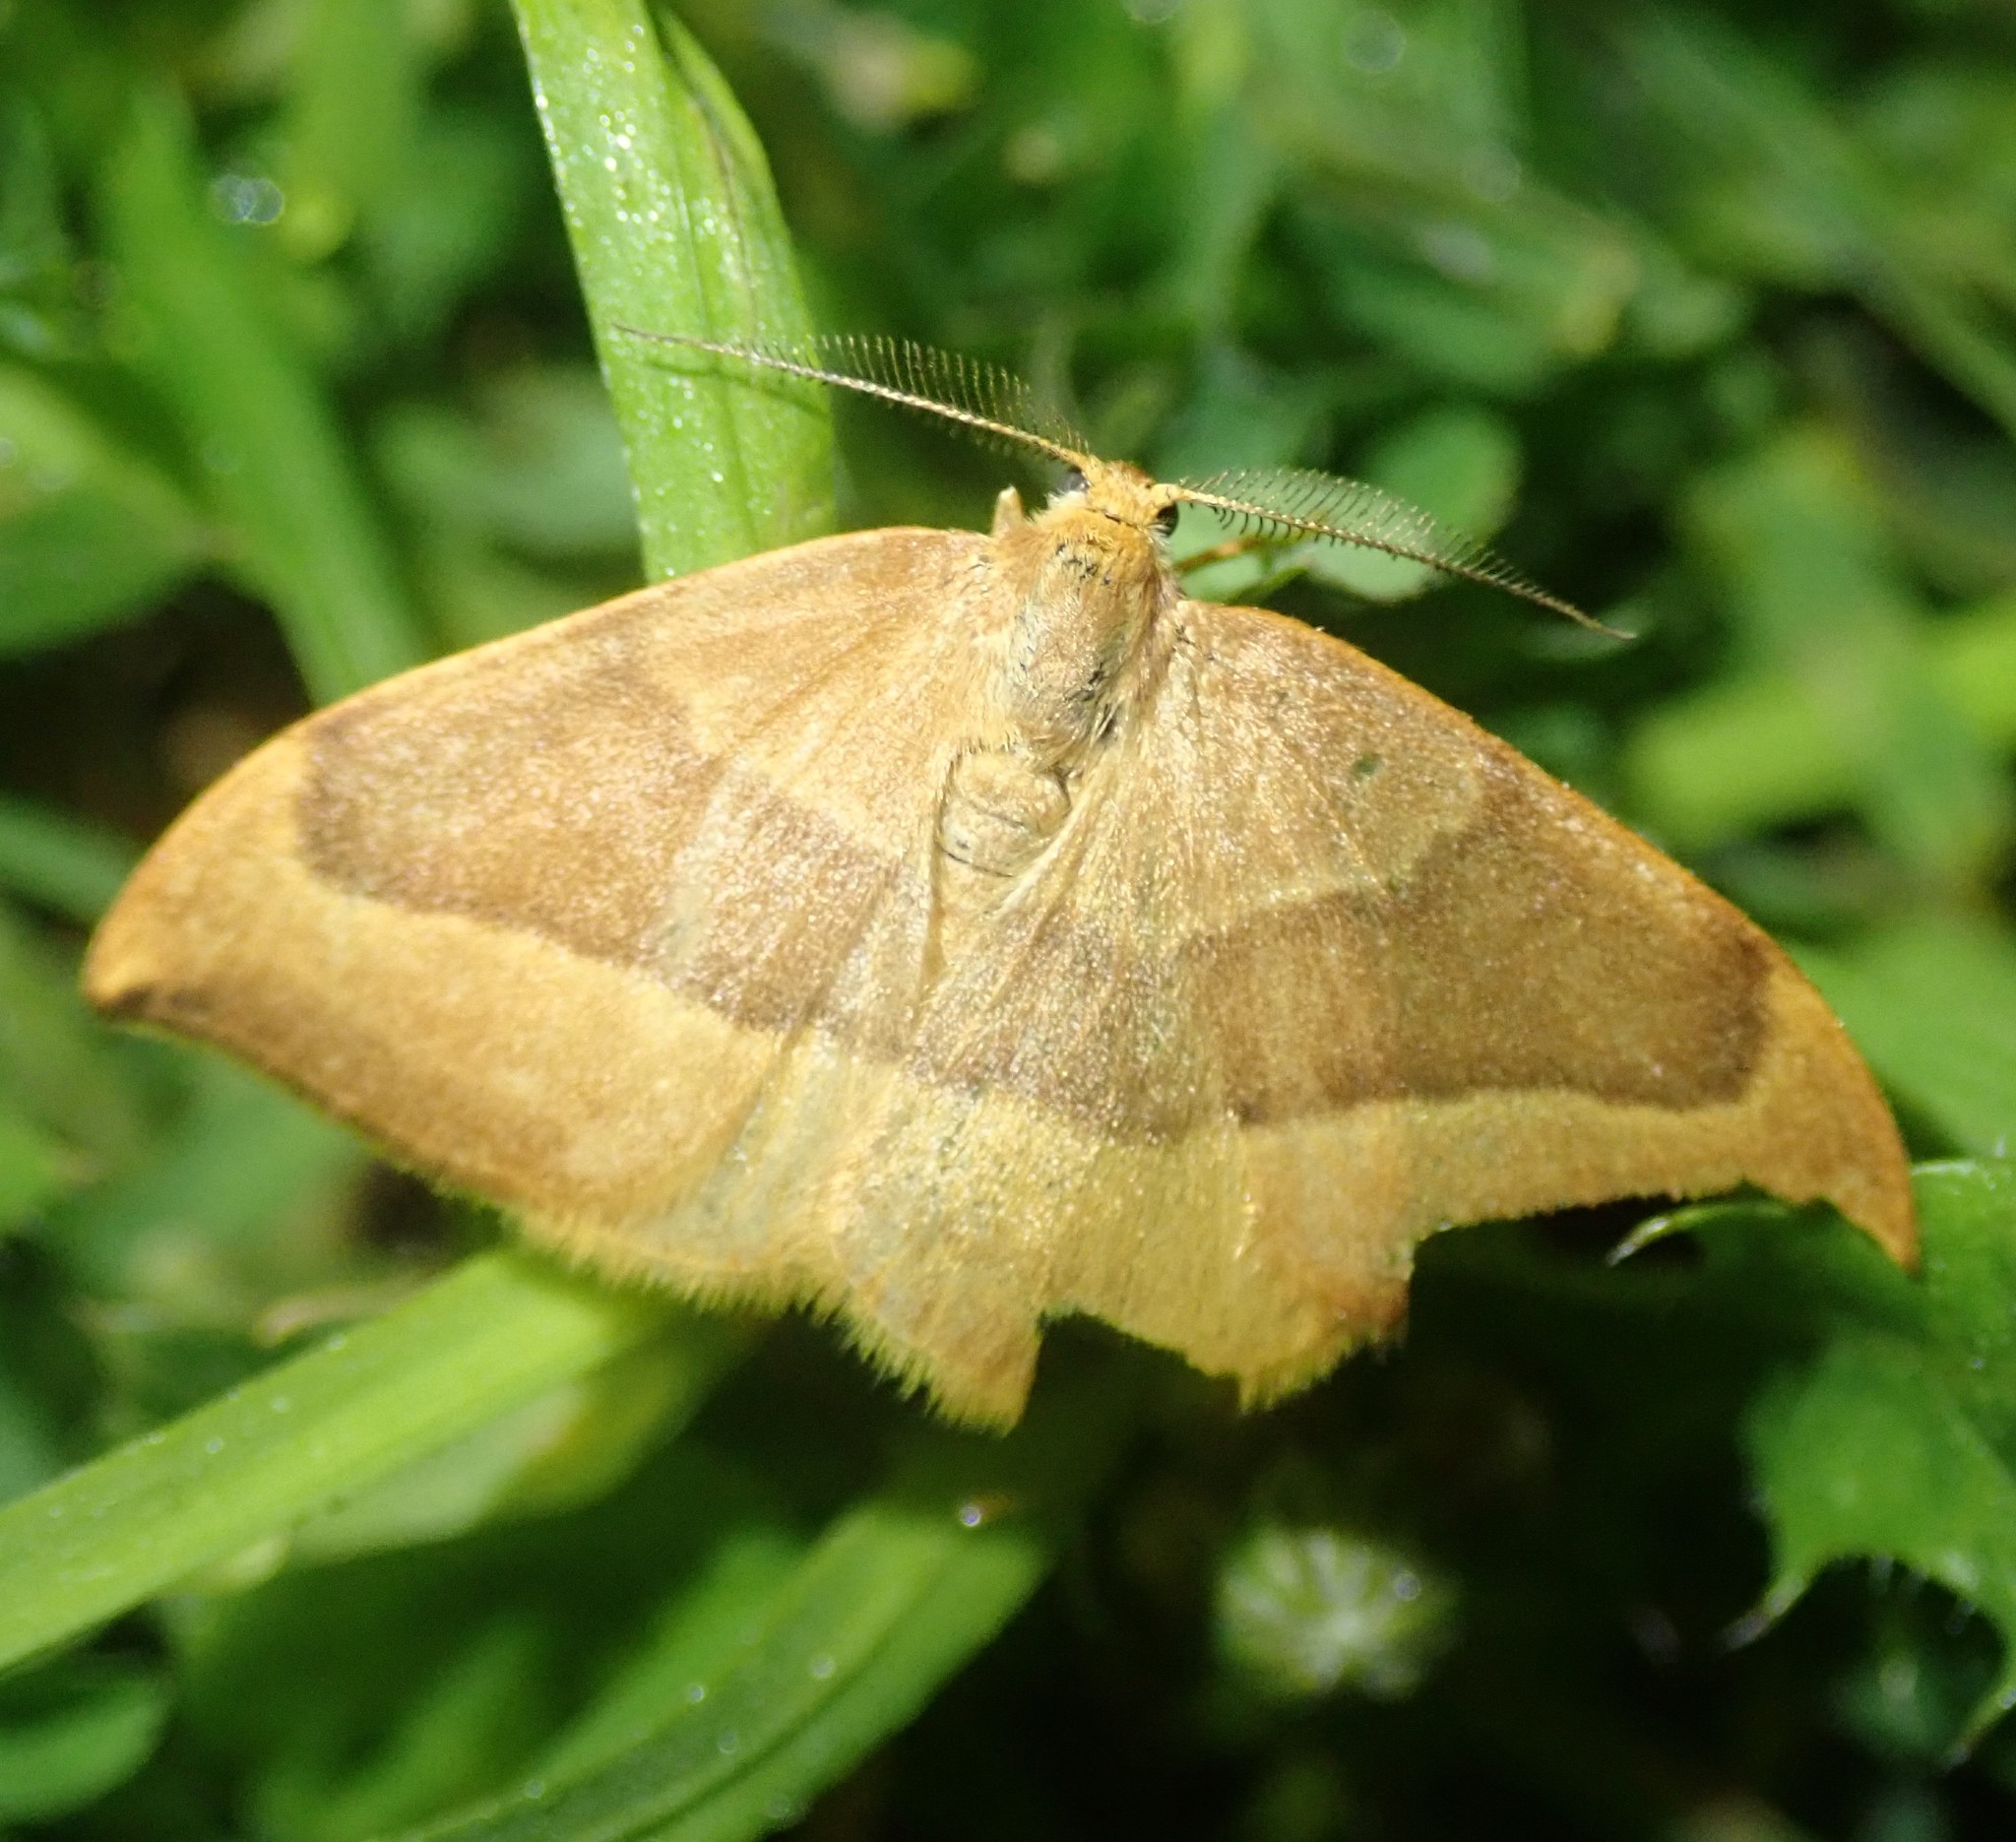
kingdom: Animalia
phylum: Arthropoda
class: Insecta
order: Lepidoptera
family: Drepanidae
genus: Watsonalla
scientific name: Watsonalla cultraria
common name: Barred hook-tip
